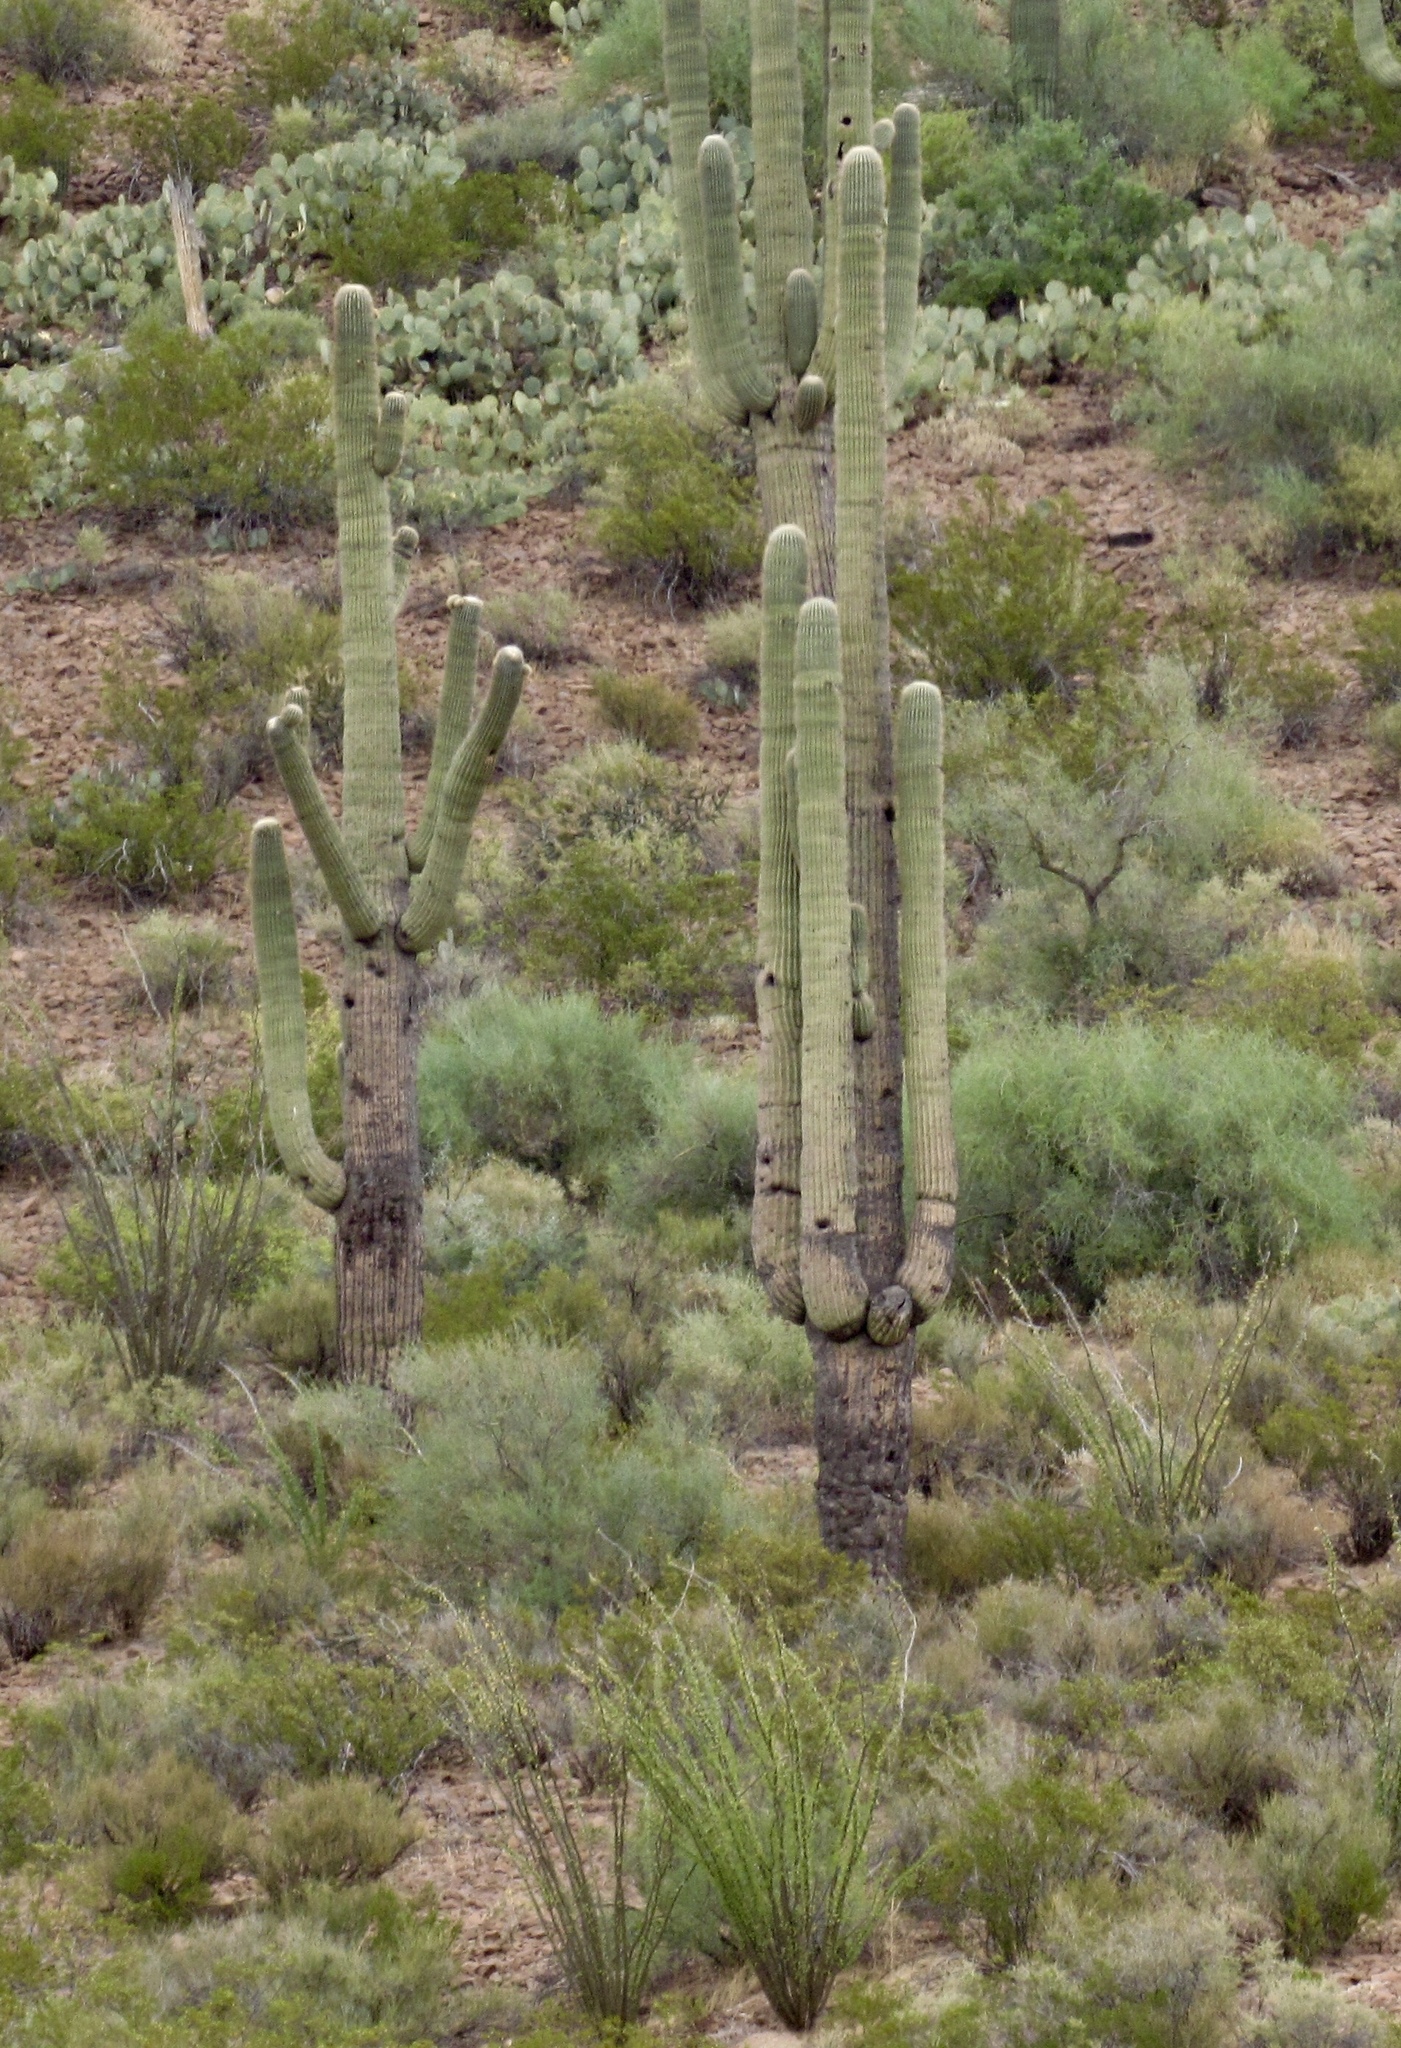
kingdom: Plantae
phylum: Tracheophyta
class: Magnoliopsida
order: Caryophyllales
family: Cactaceae
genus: Carnegiea
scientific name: Carnegiea gigantea
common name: Saguaro
